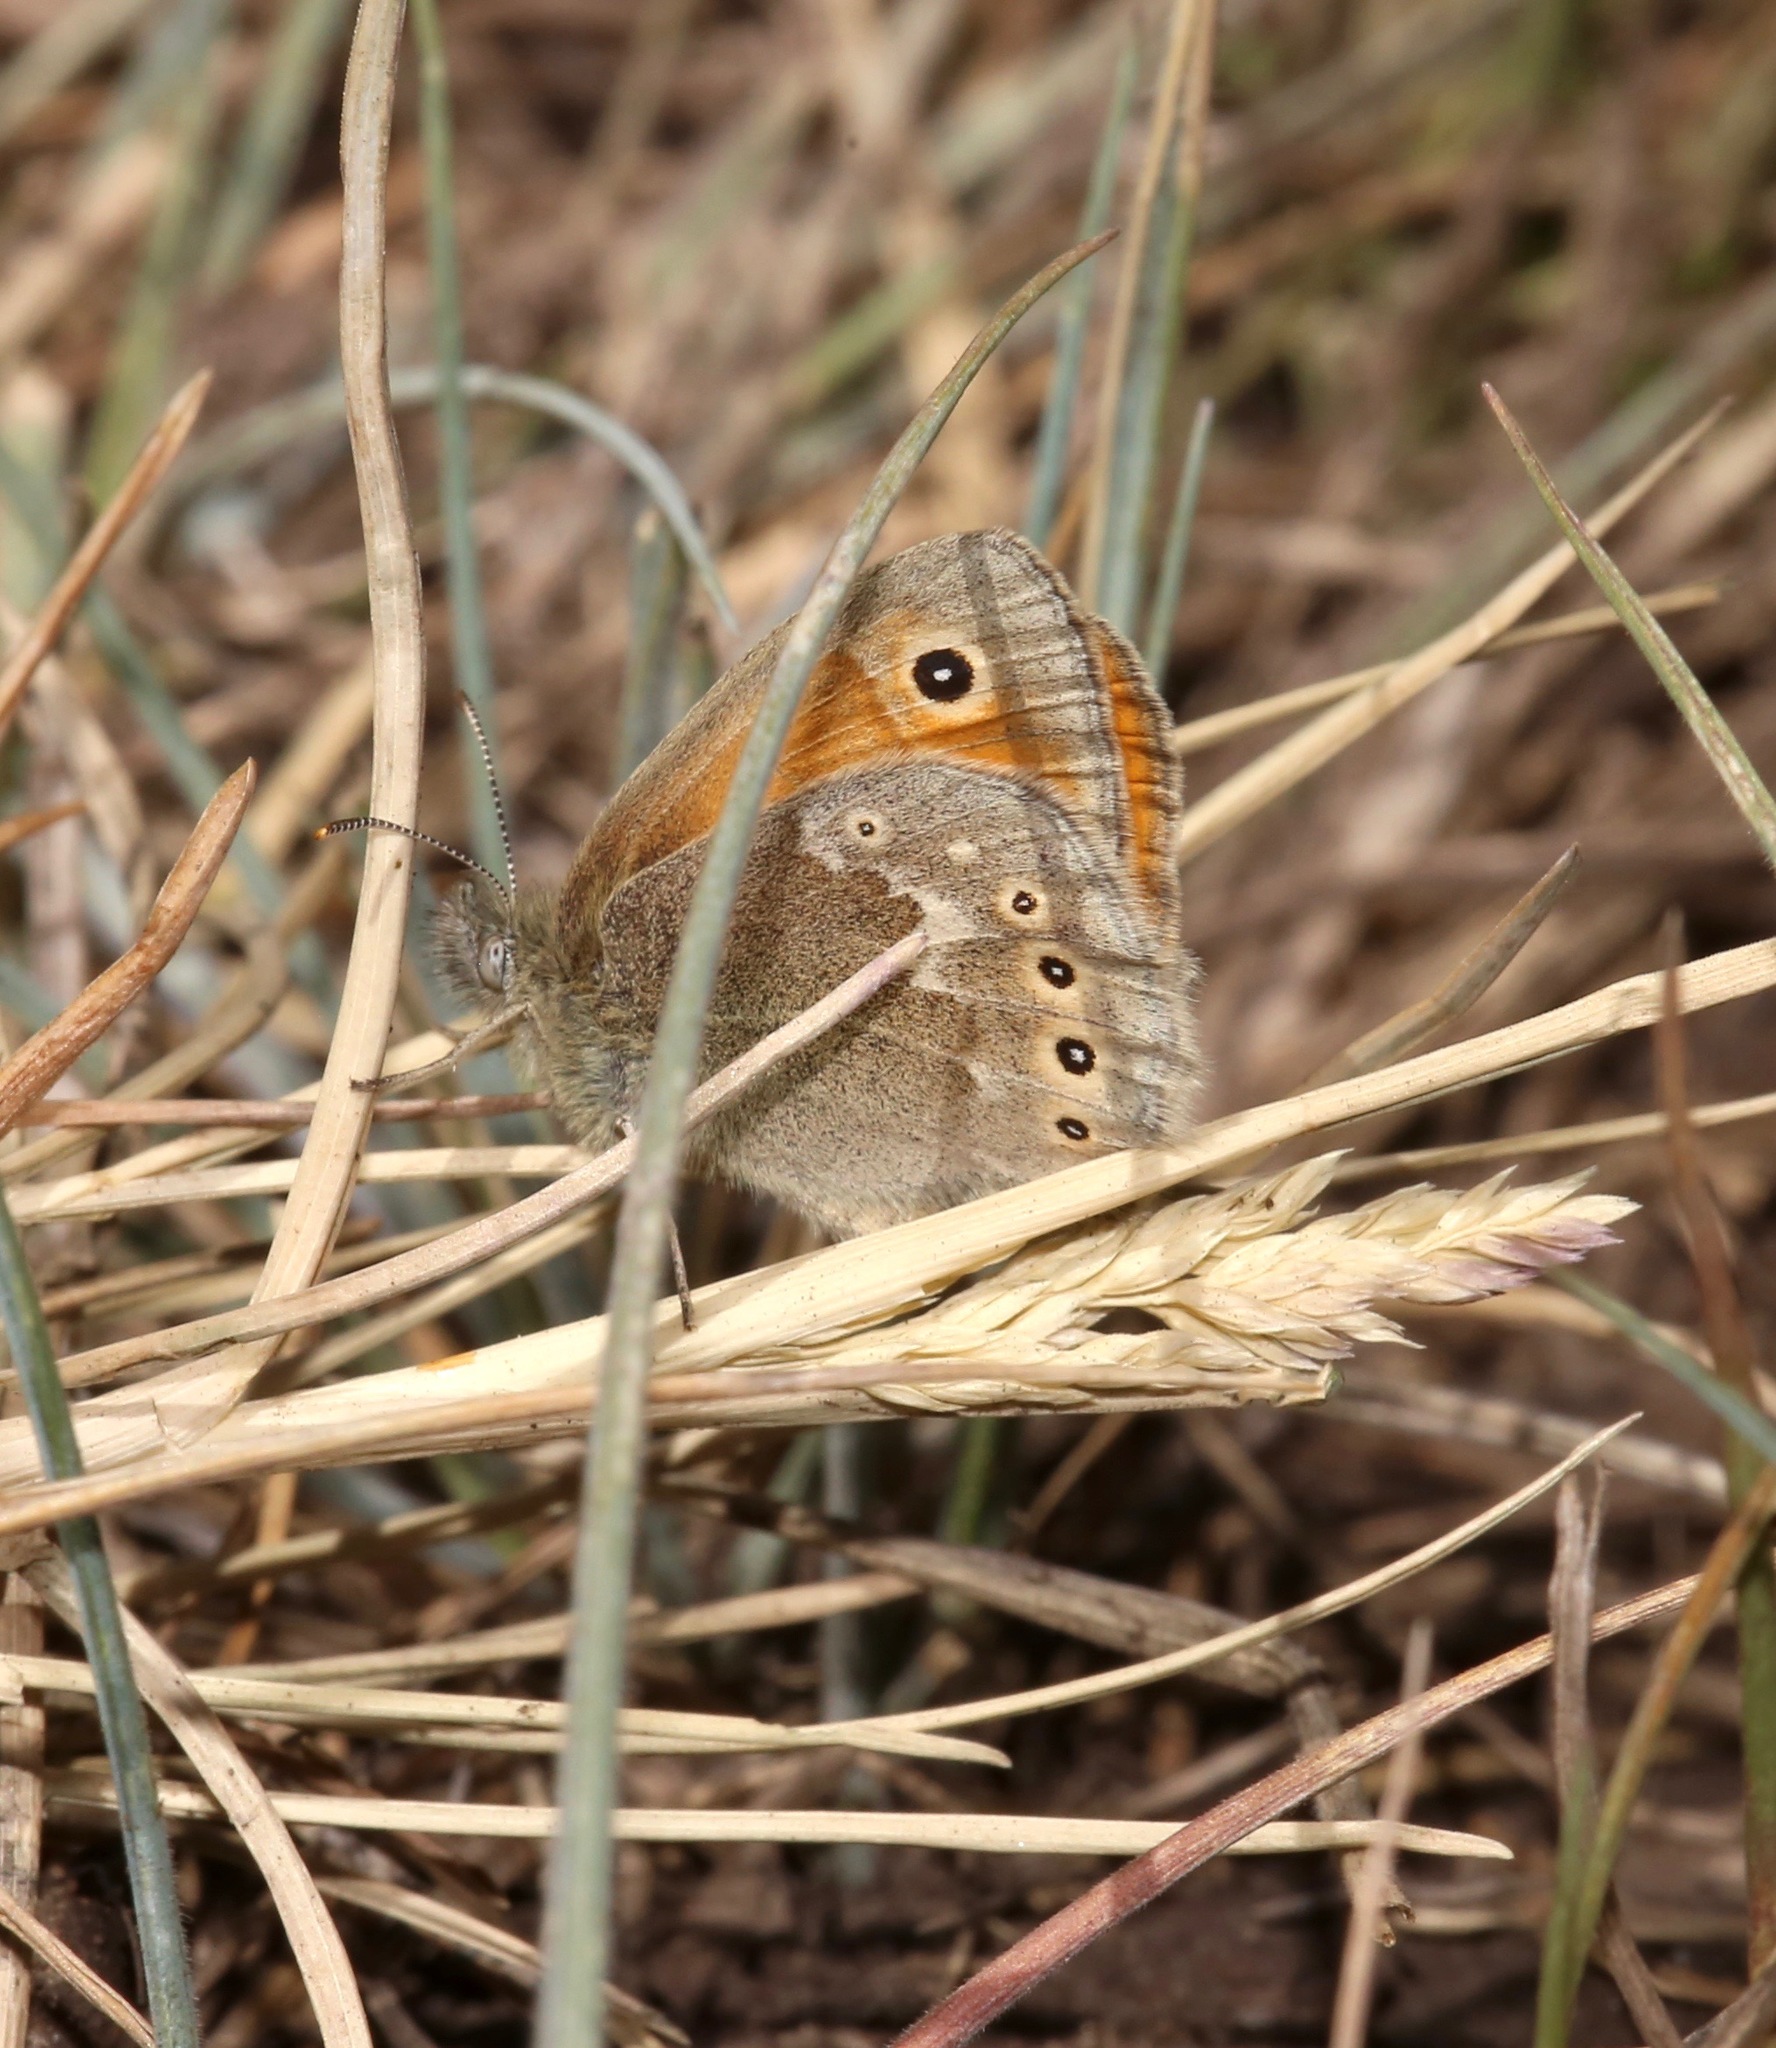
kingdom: Animalia
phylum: Arthropoda
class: Insecta
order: Lepidoptera
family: Nymphalidae
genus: Coenonympha
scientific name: Coenonympha california
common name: Common ringlet
